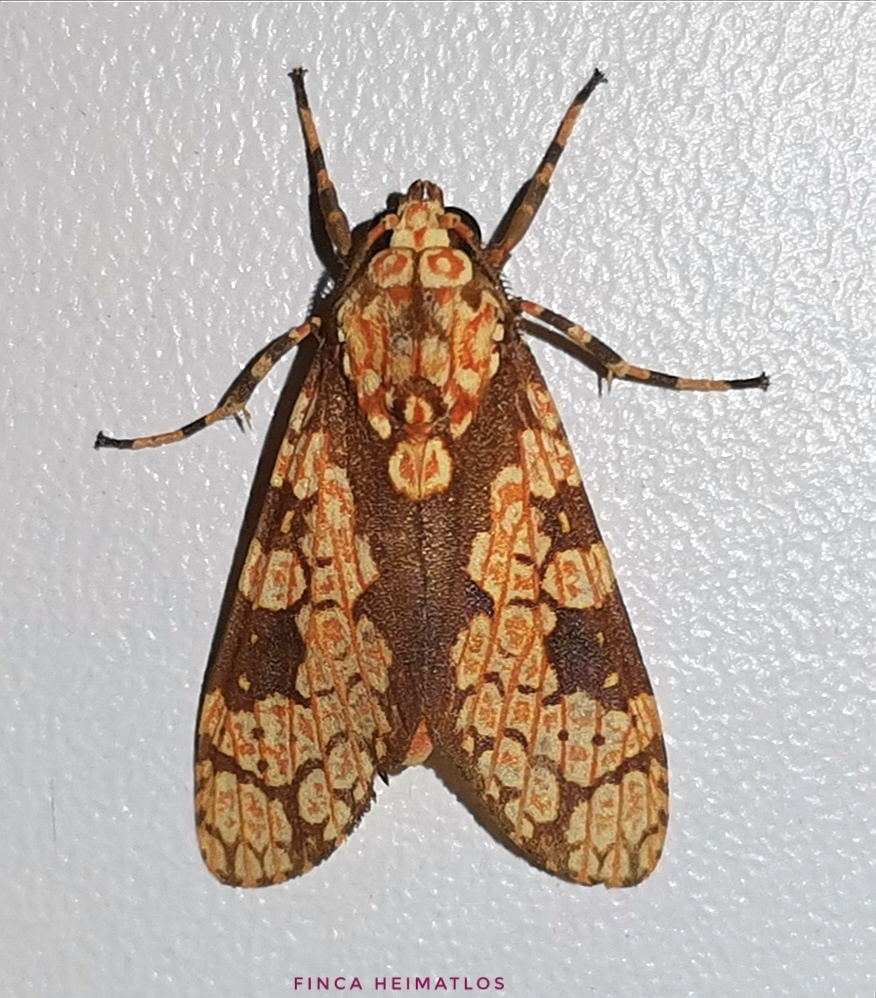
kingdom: Animalia
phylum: Arthropoda
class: Insecta
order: Lepidoptera
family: Erebidae
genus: Cresera
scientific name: Cresera optimus
